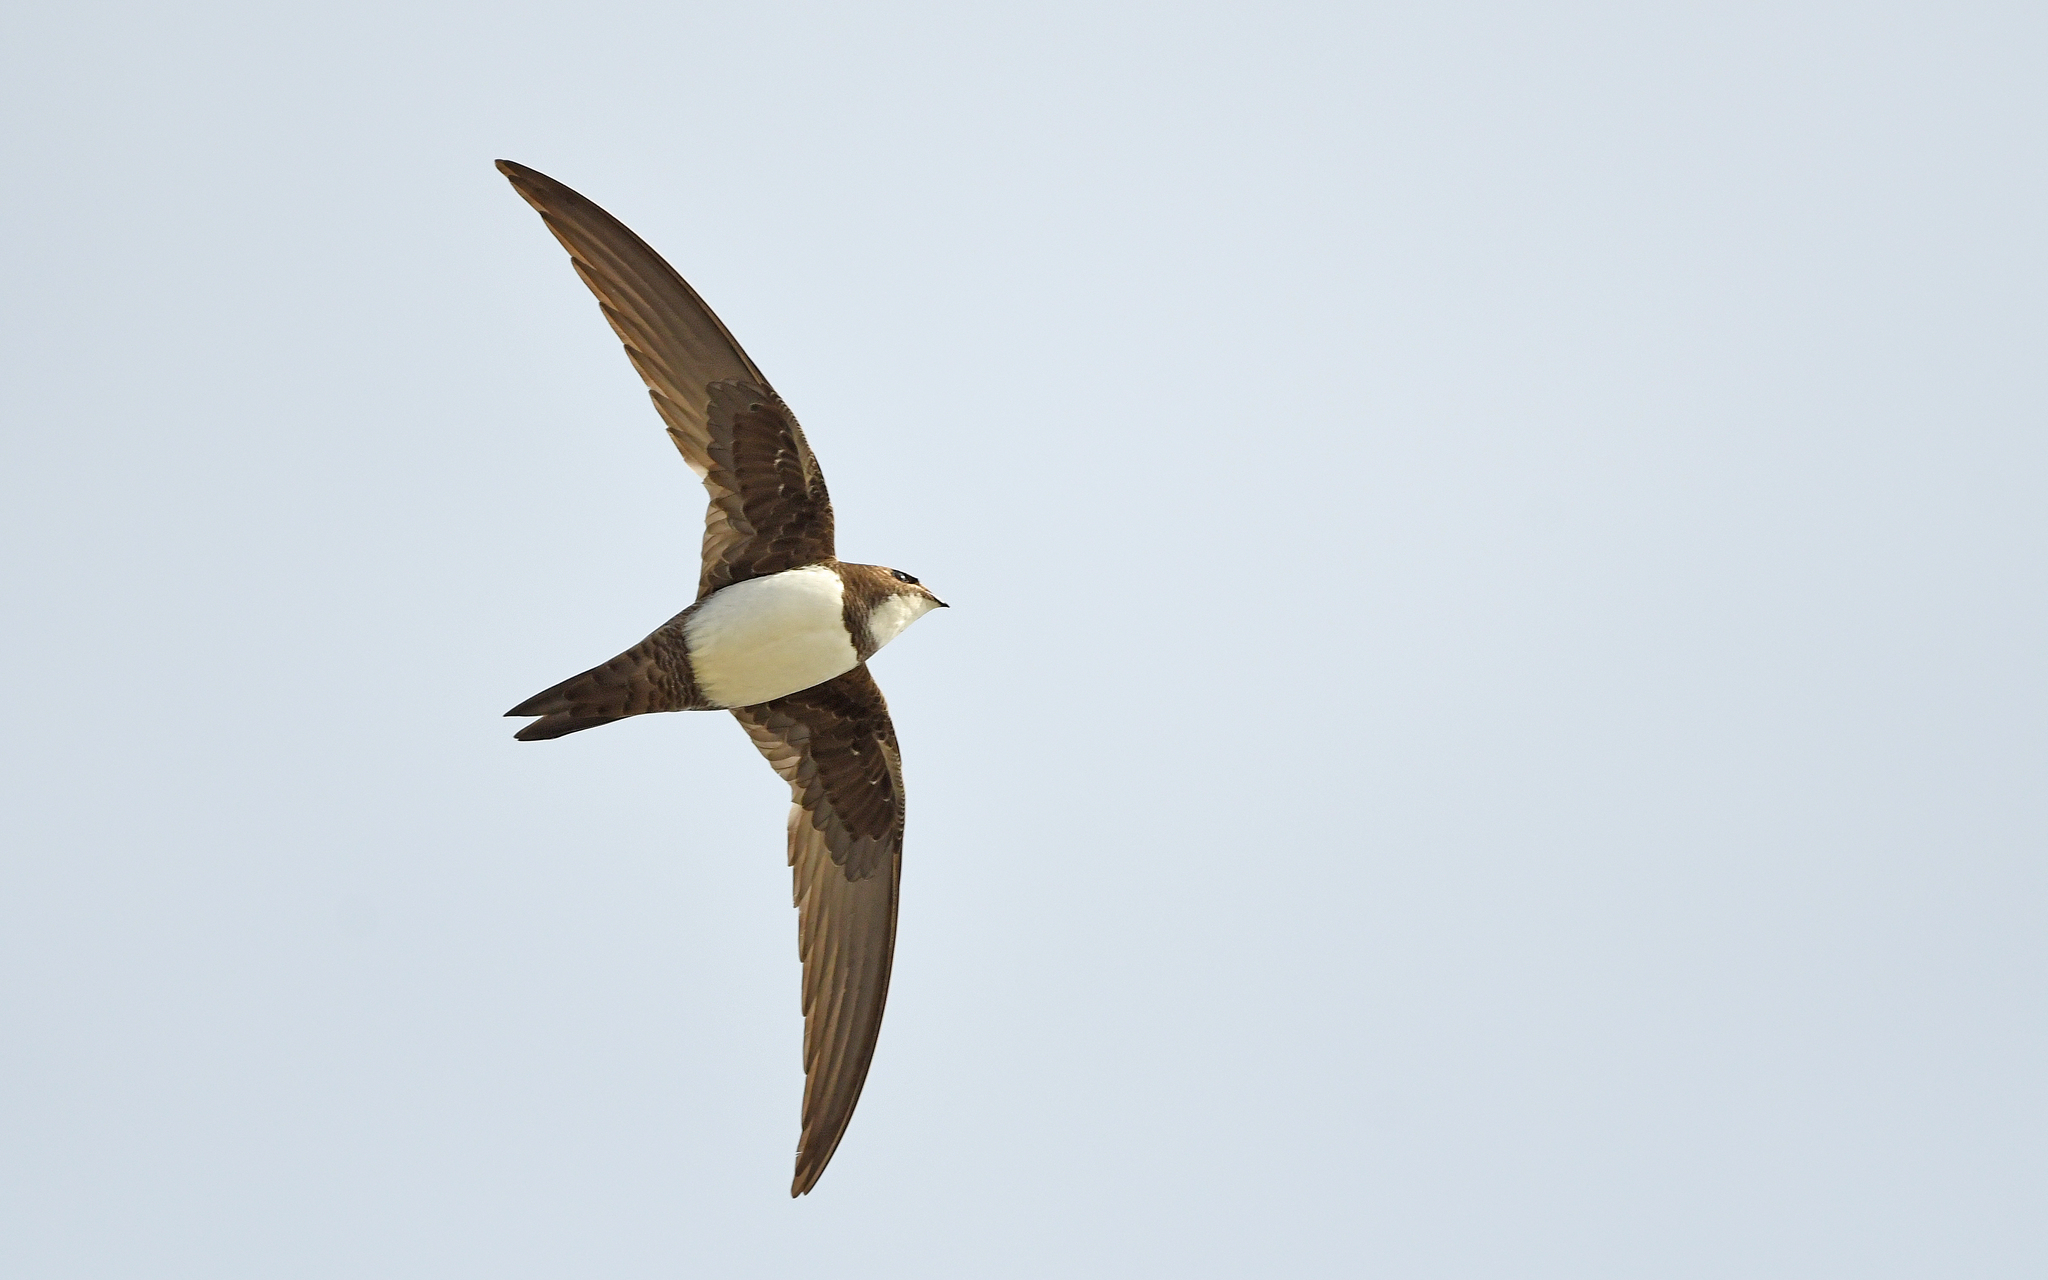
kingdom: Animalia
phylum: Chordata
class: Aves
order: Apodiformes
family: Apodidae
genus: Tachymarptis
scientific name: Tachymarptis melba
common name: Alpine swift
